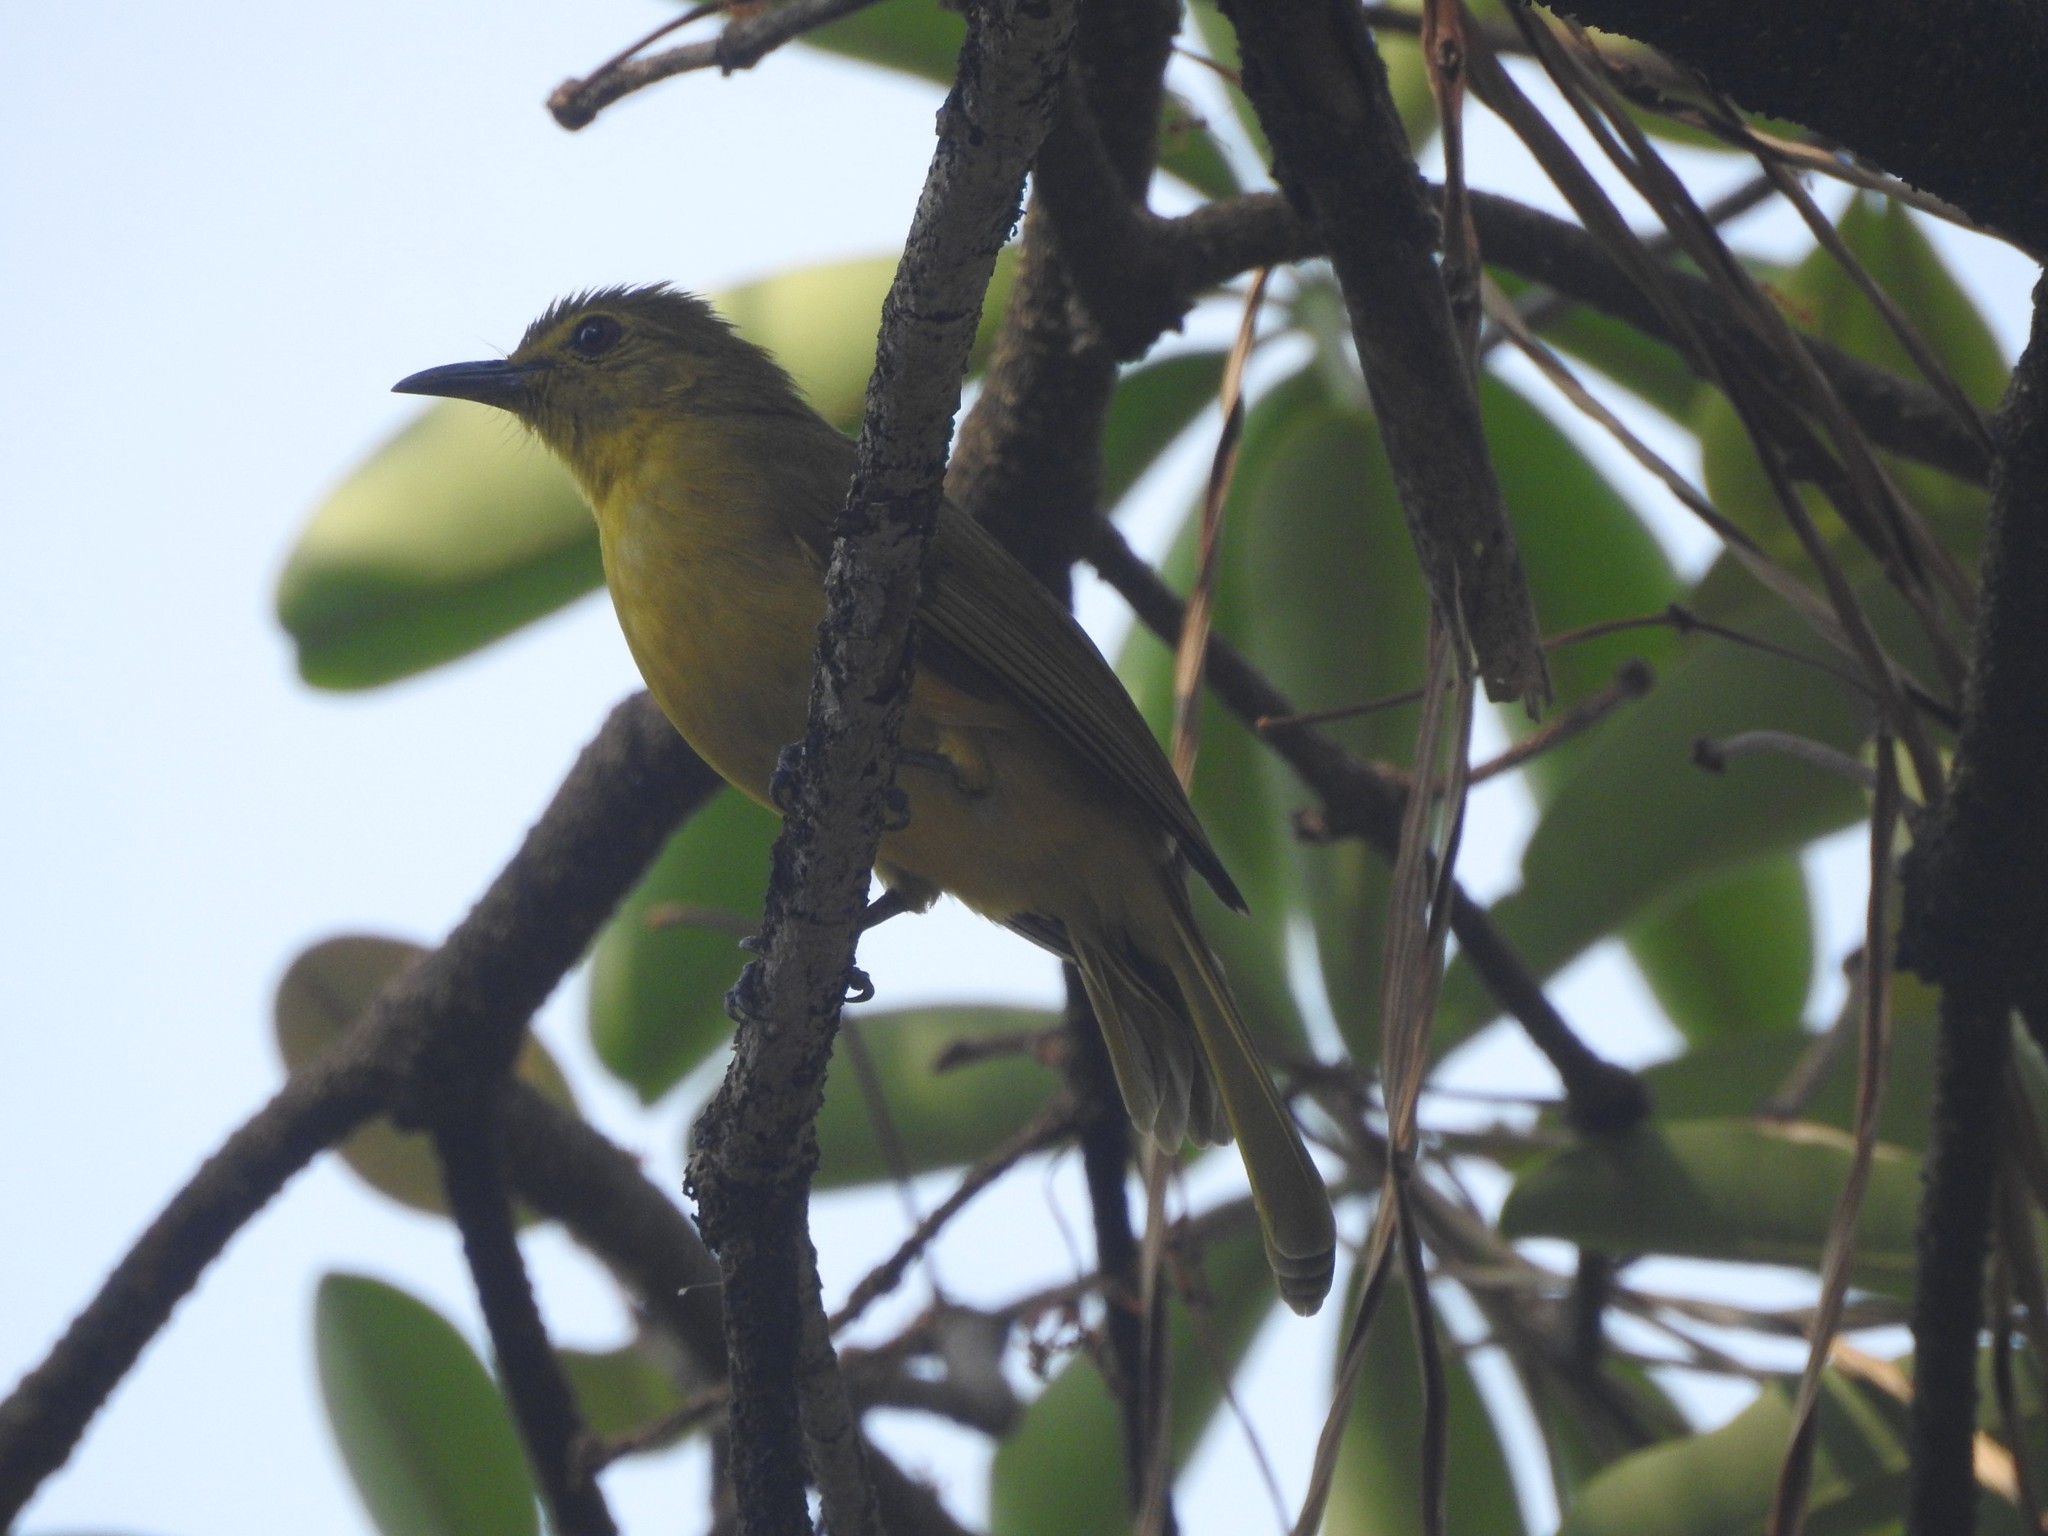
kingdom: Animalia
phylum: Chordata
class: Aves
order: Passeriformes
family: Pycnonotidae
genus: Acritillas
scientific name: Acritillas indica
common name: Yellow-browed bulbul
